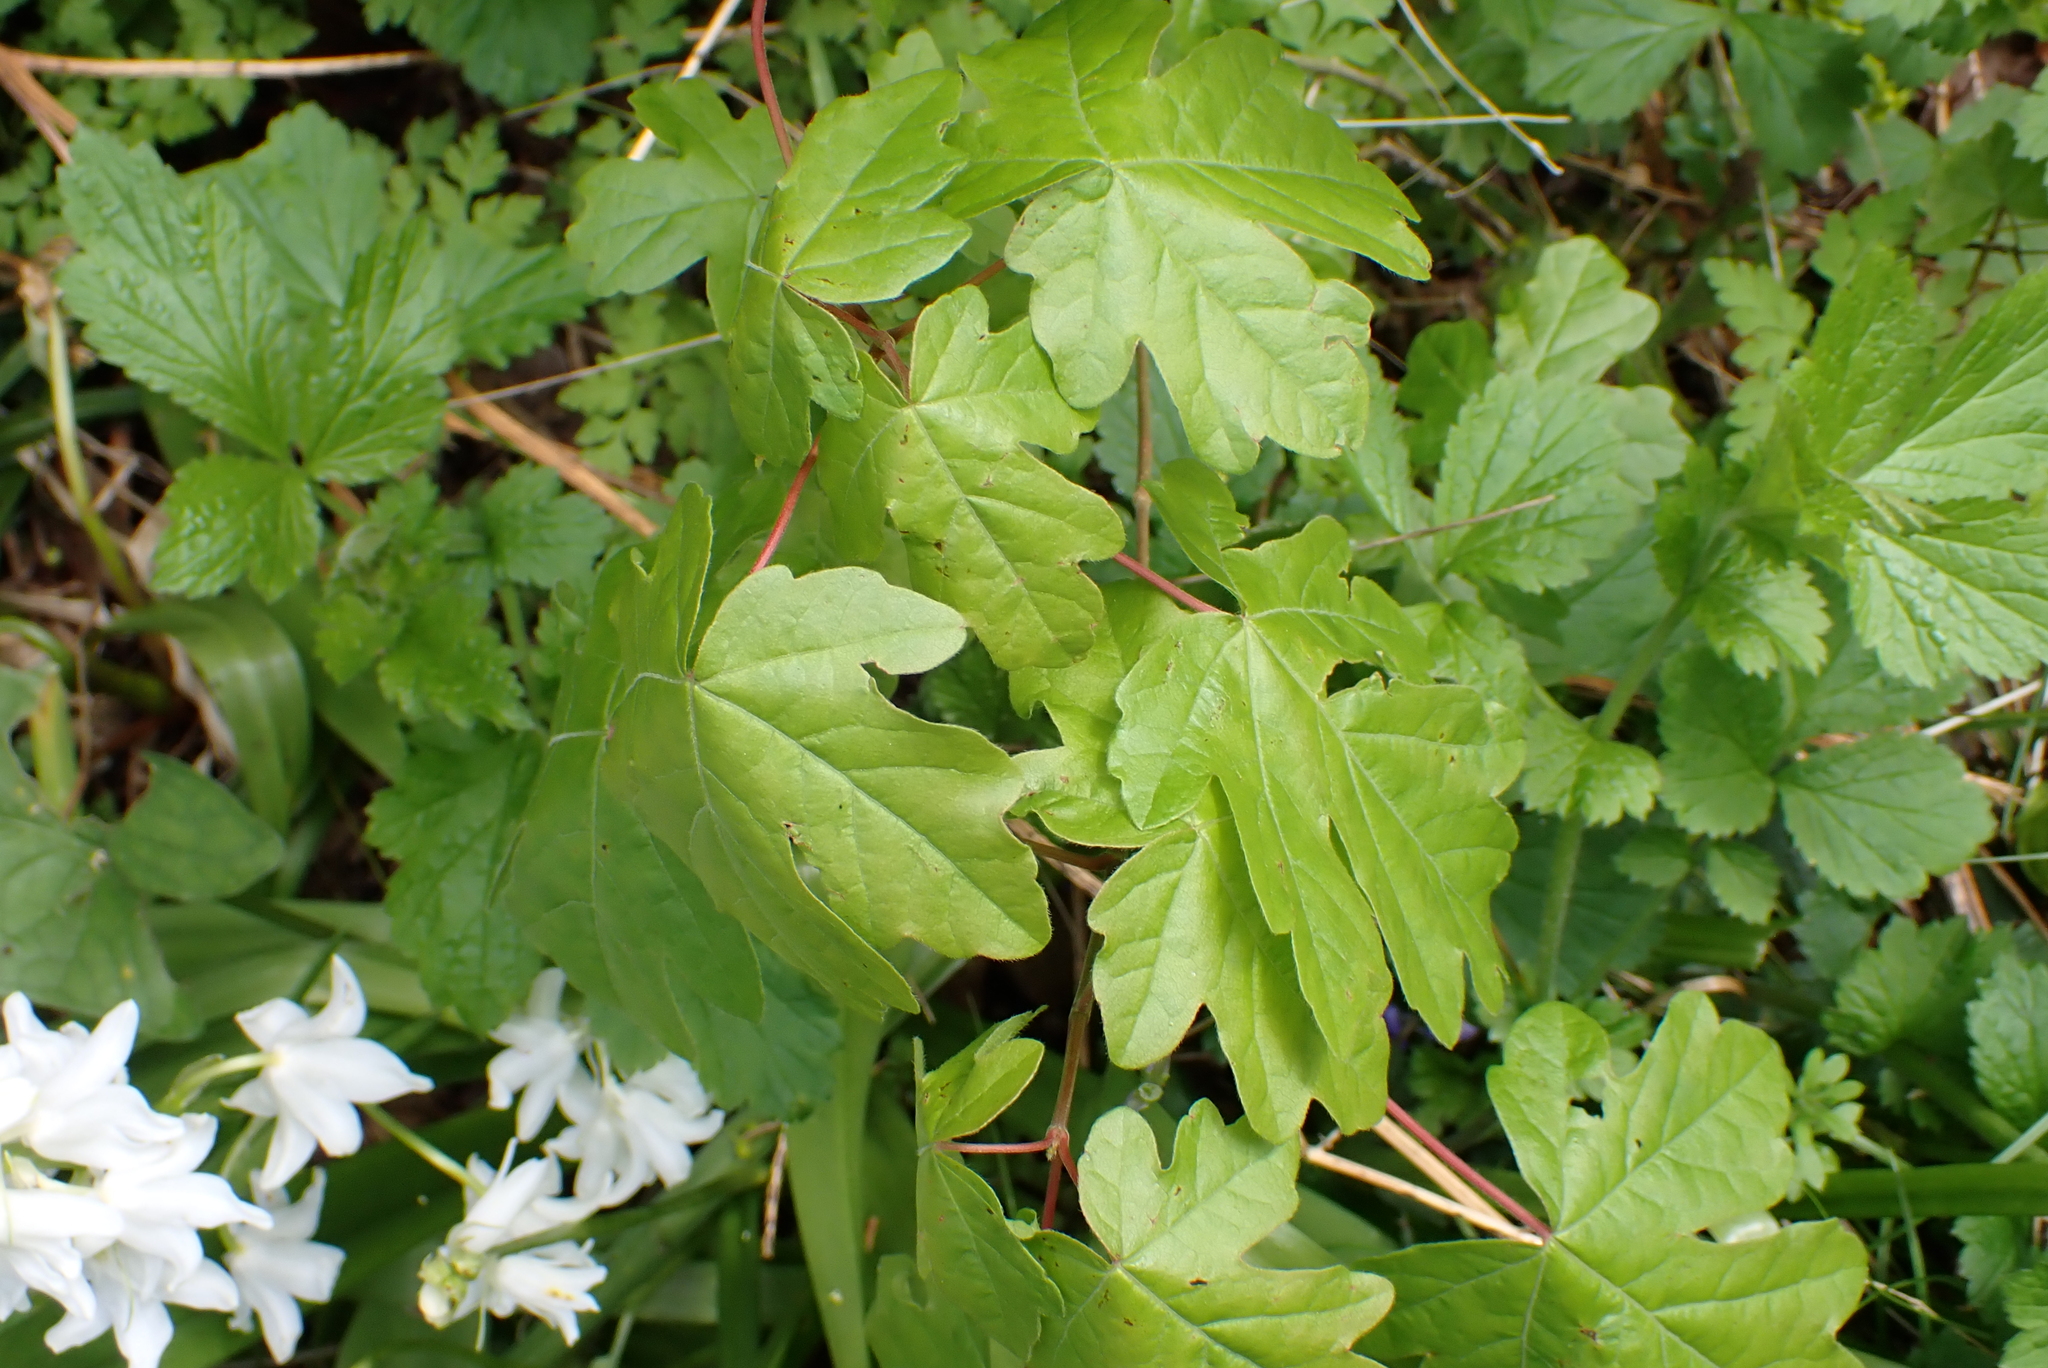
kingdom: Plantae
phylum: Tracheophyta
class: Magnoliopsida
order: Sapindales
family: Sapindaceae
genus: Acer
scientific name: Acer campestre
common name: Field maple
